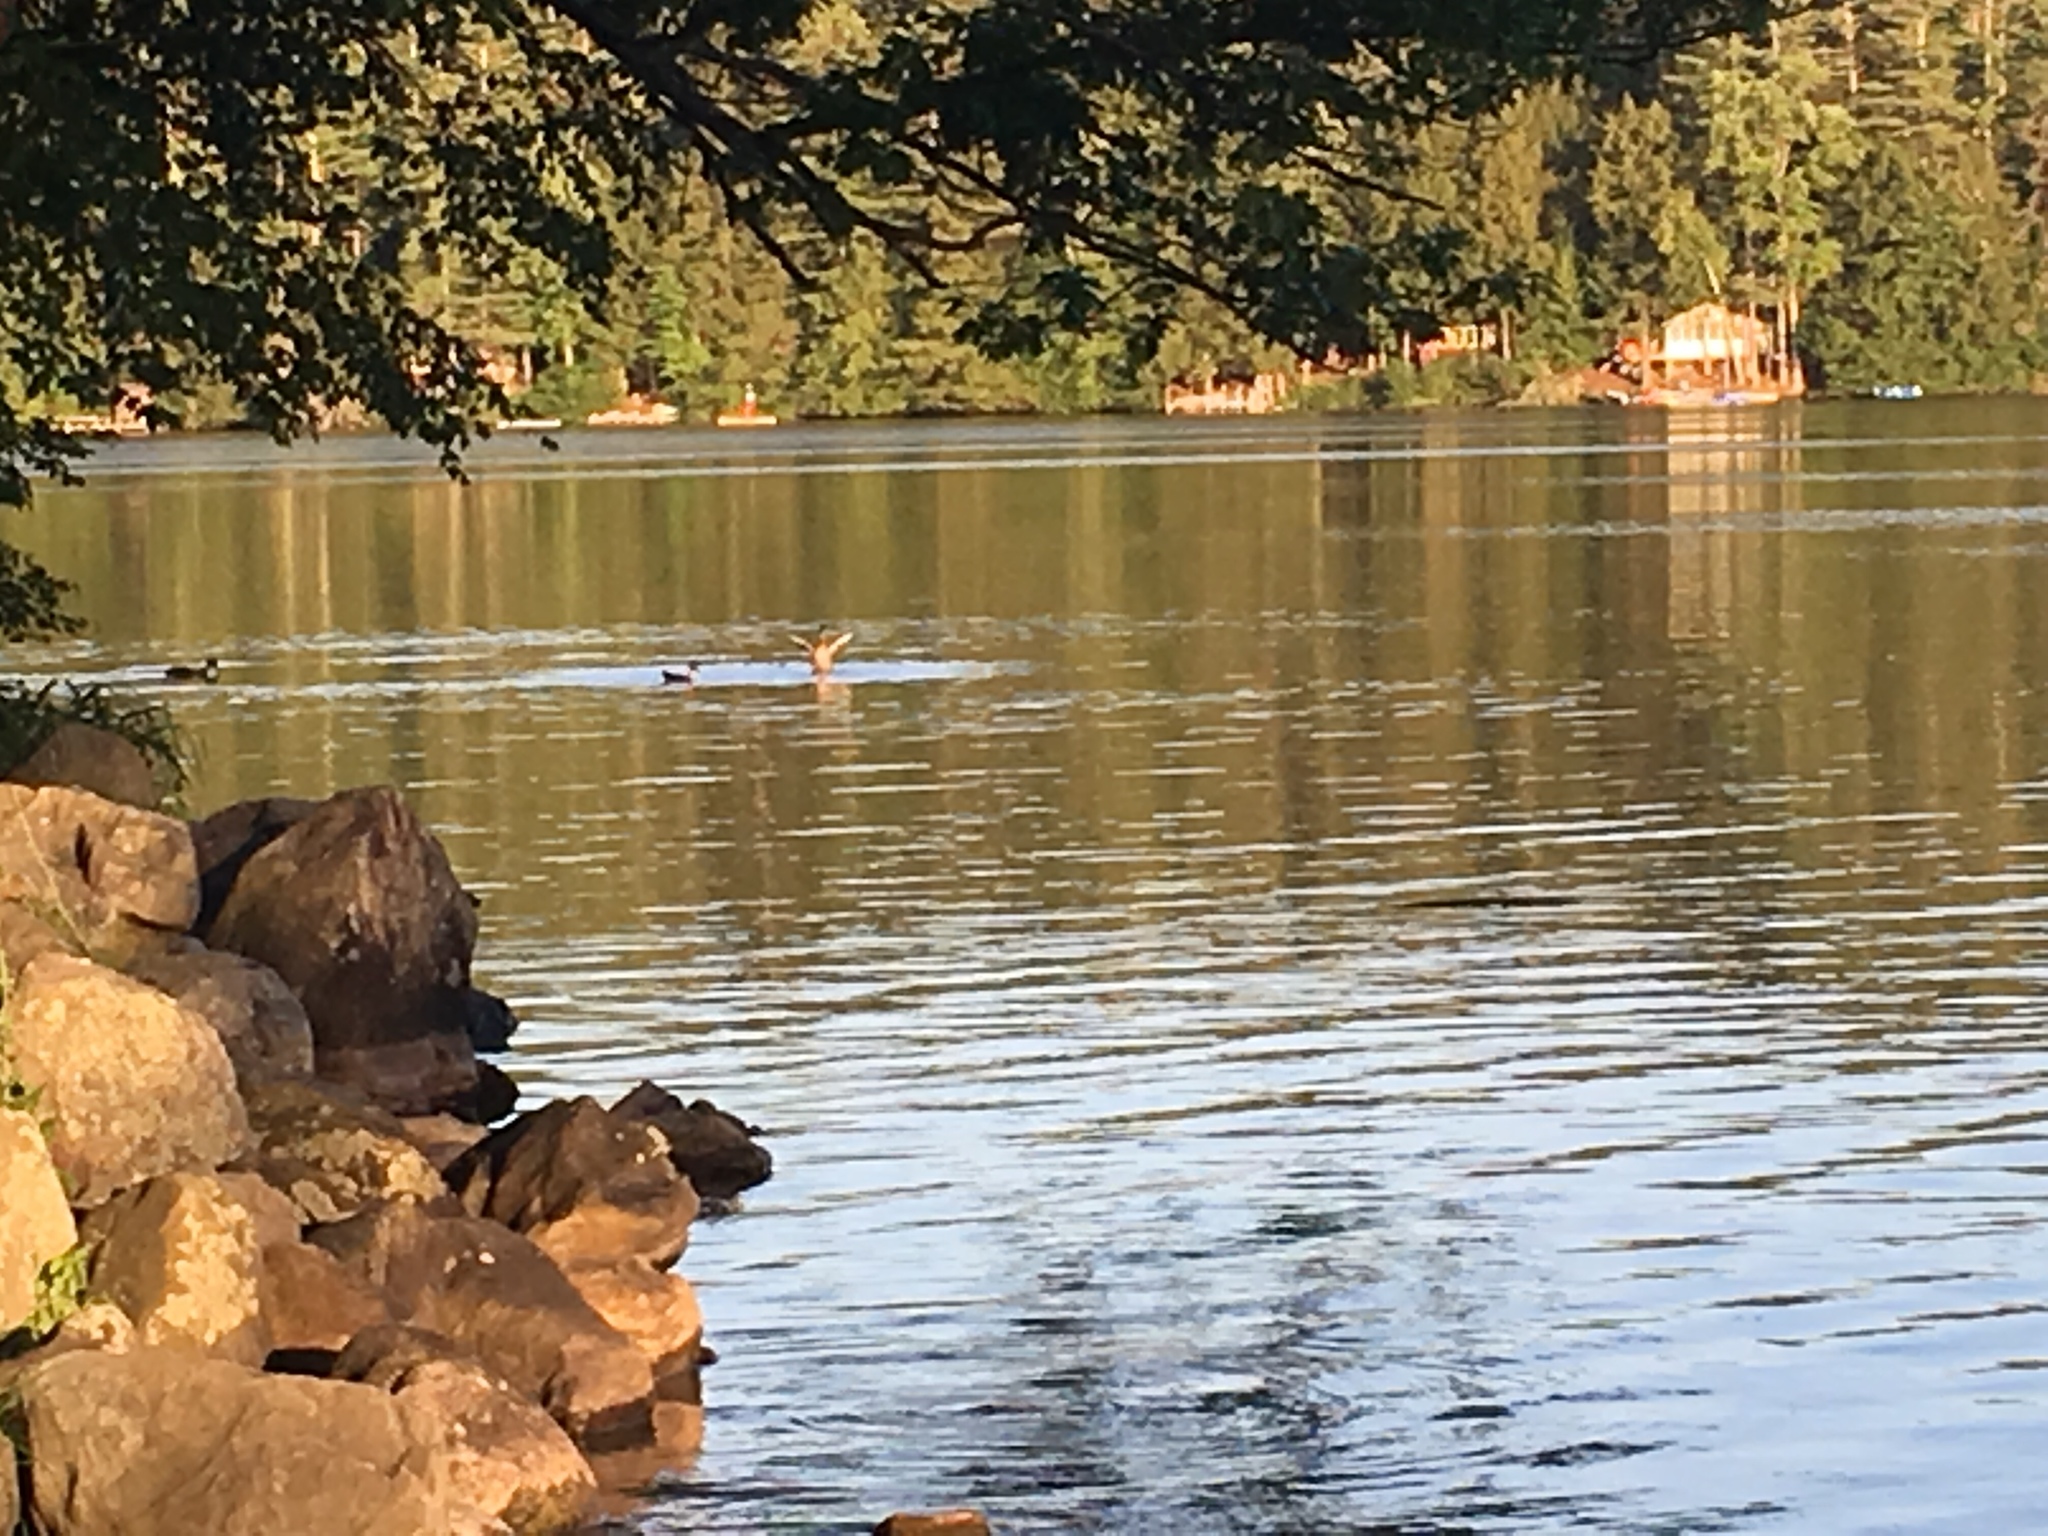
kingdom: Animalia
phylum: Chordata
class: Aves
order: Anseriformes
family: Anatidae
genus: Anas
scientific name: Anas platyrhynchos
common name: Mallard
